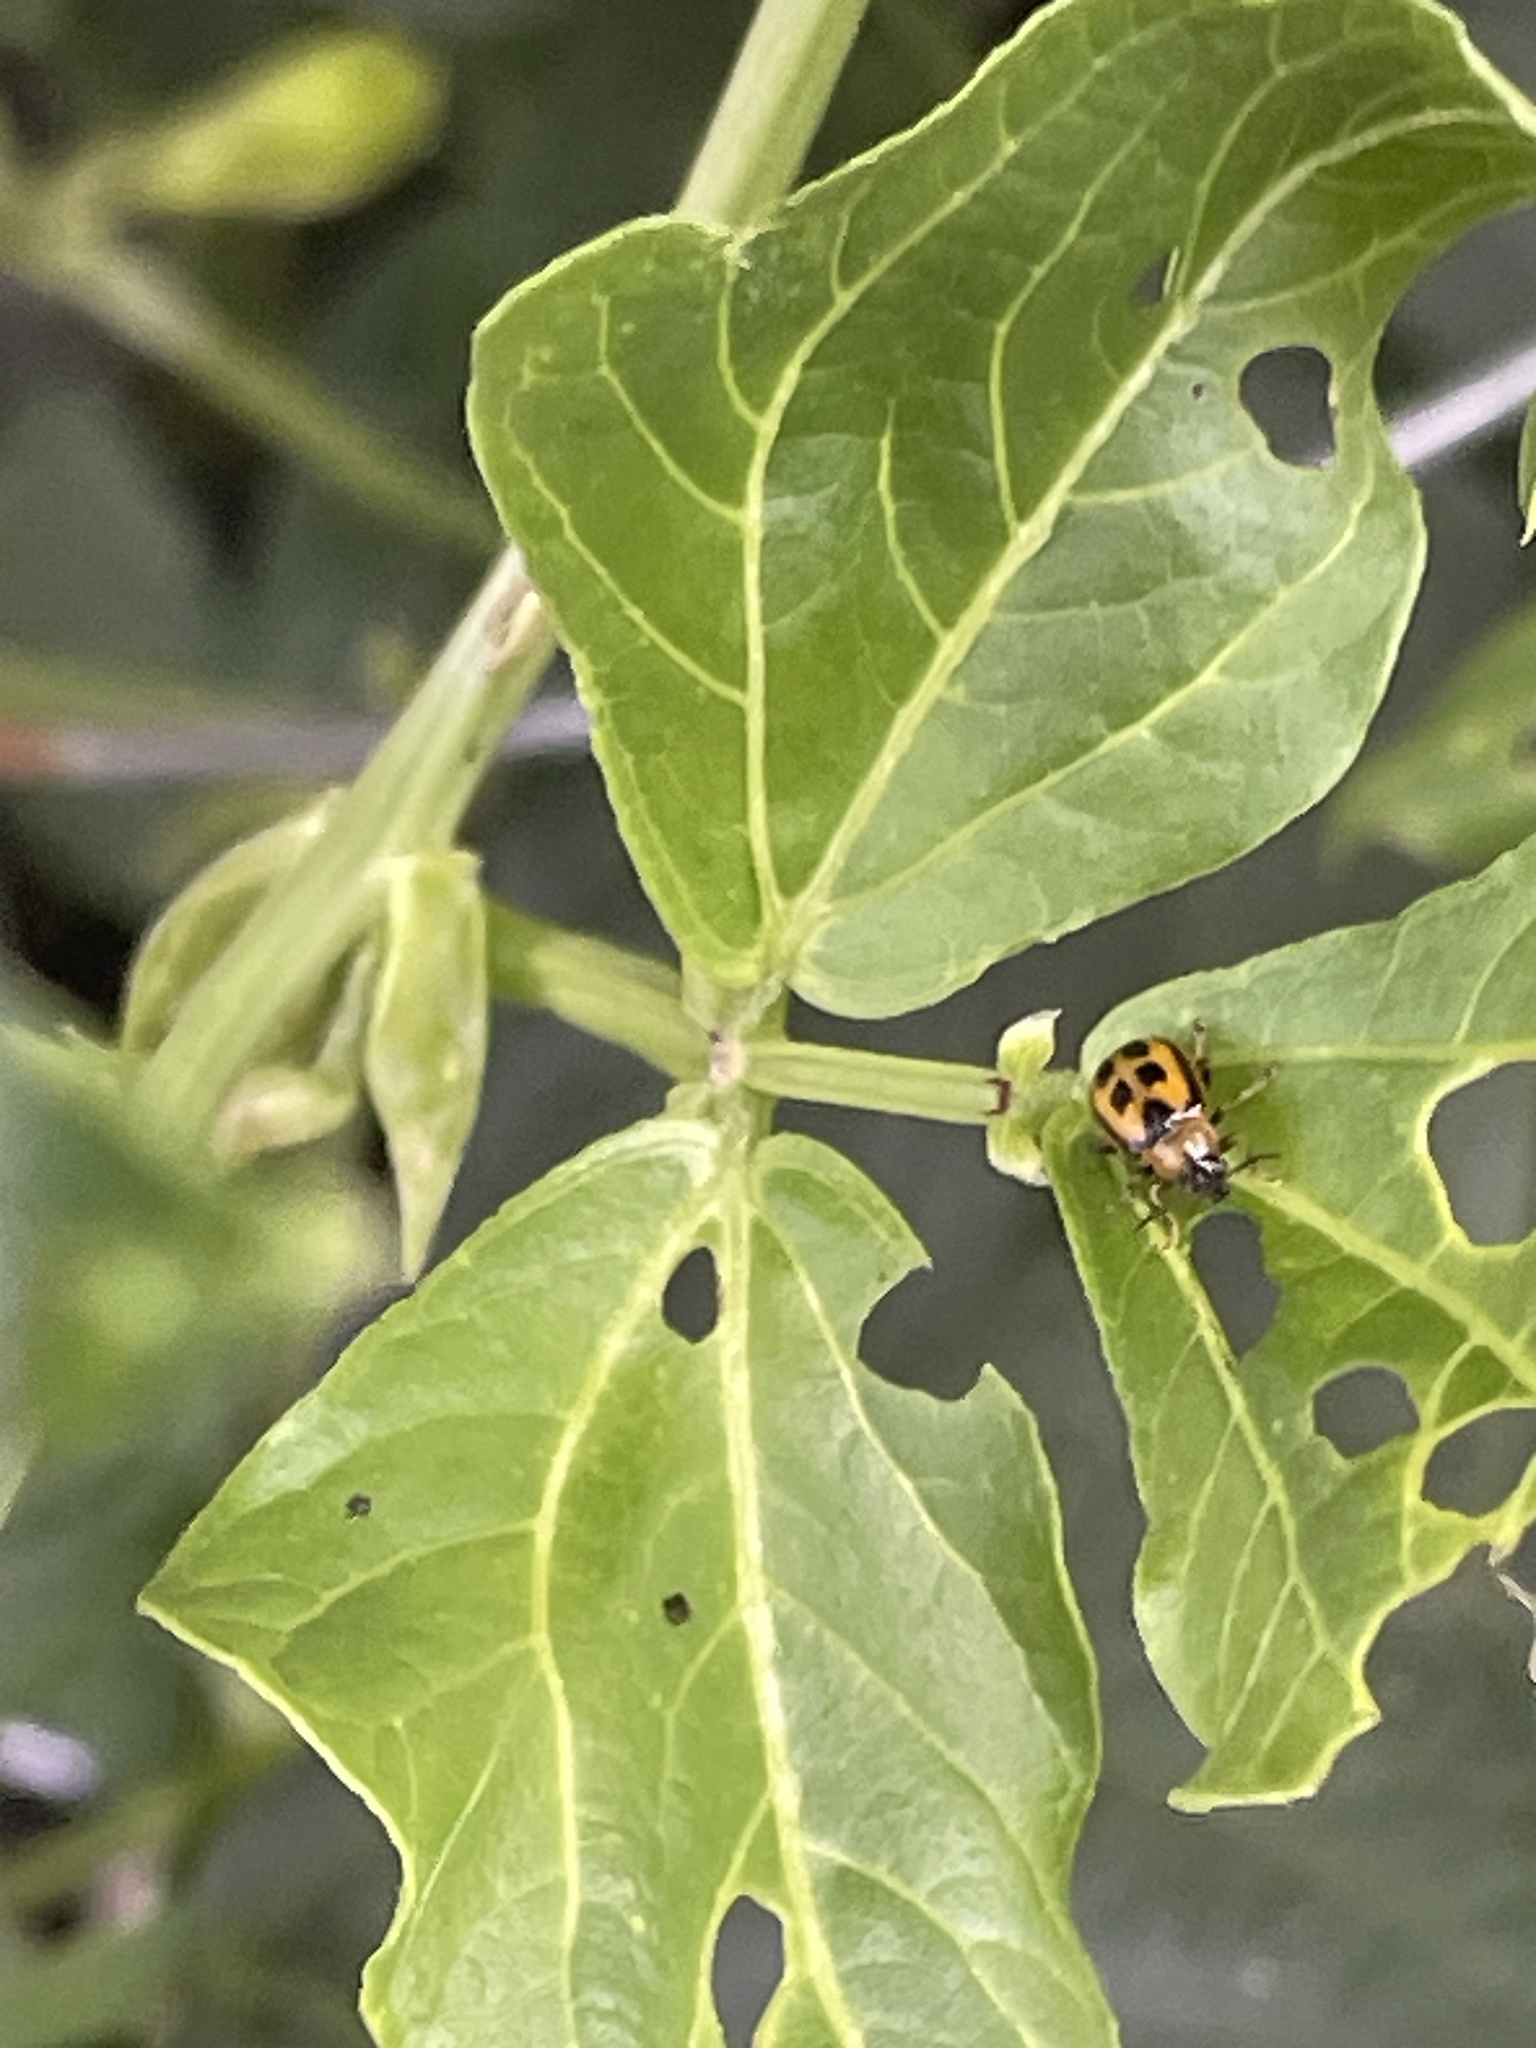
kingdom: Animalia
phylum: Arthropoda
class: Insecta
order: Coleoptera
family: Chrysomelidae
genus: Cerotoma
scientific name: Cerotoma trifurcata
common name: Bean leaf beetle
